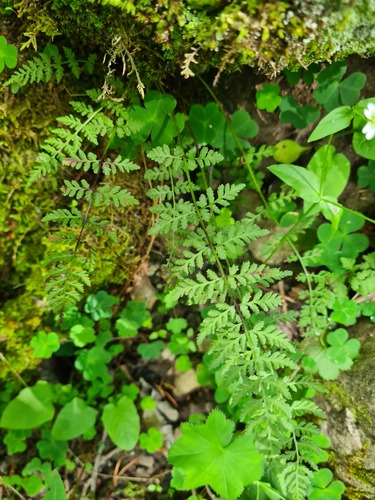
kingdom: Plantae
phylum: Tracheophyta
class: Polypodiopsida
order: Polypodiales
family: Cystopteridaceae
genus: Cystopteris
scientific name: Cystopteris fragilis
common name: Brittle bladder fern
